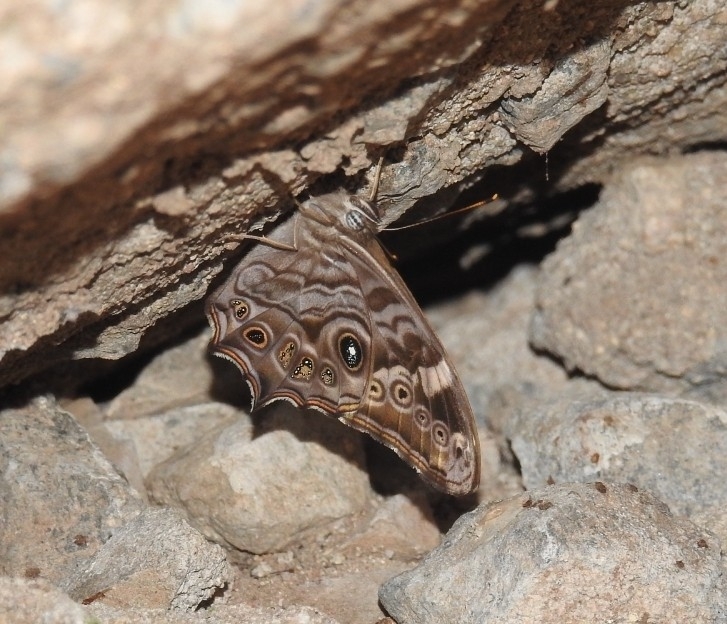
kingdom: Animalia
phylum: Arthropoda
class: Insecta
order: Lepidoptera
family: Nymphalidae
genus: Lethe
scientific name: Lethe rohria
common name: Common treebrown
